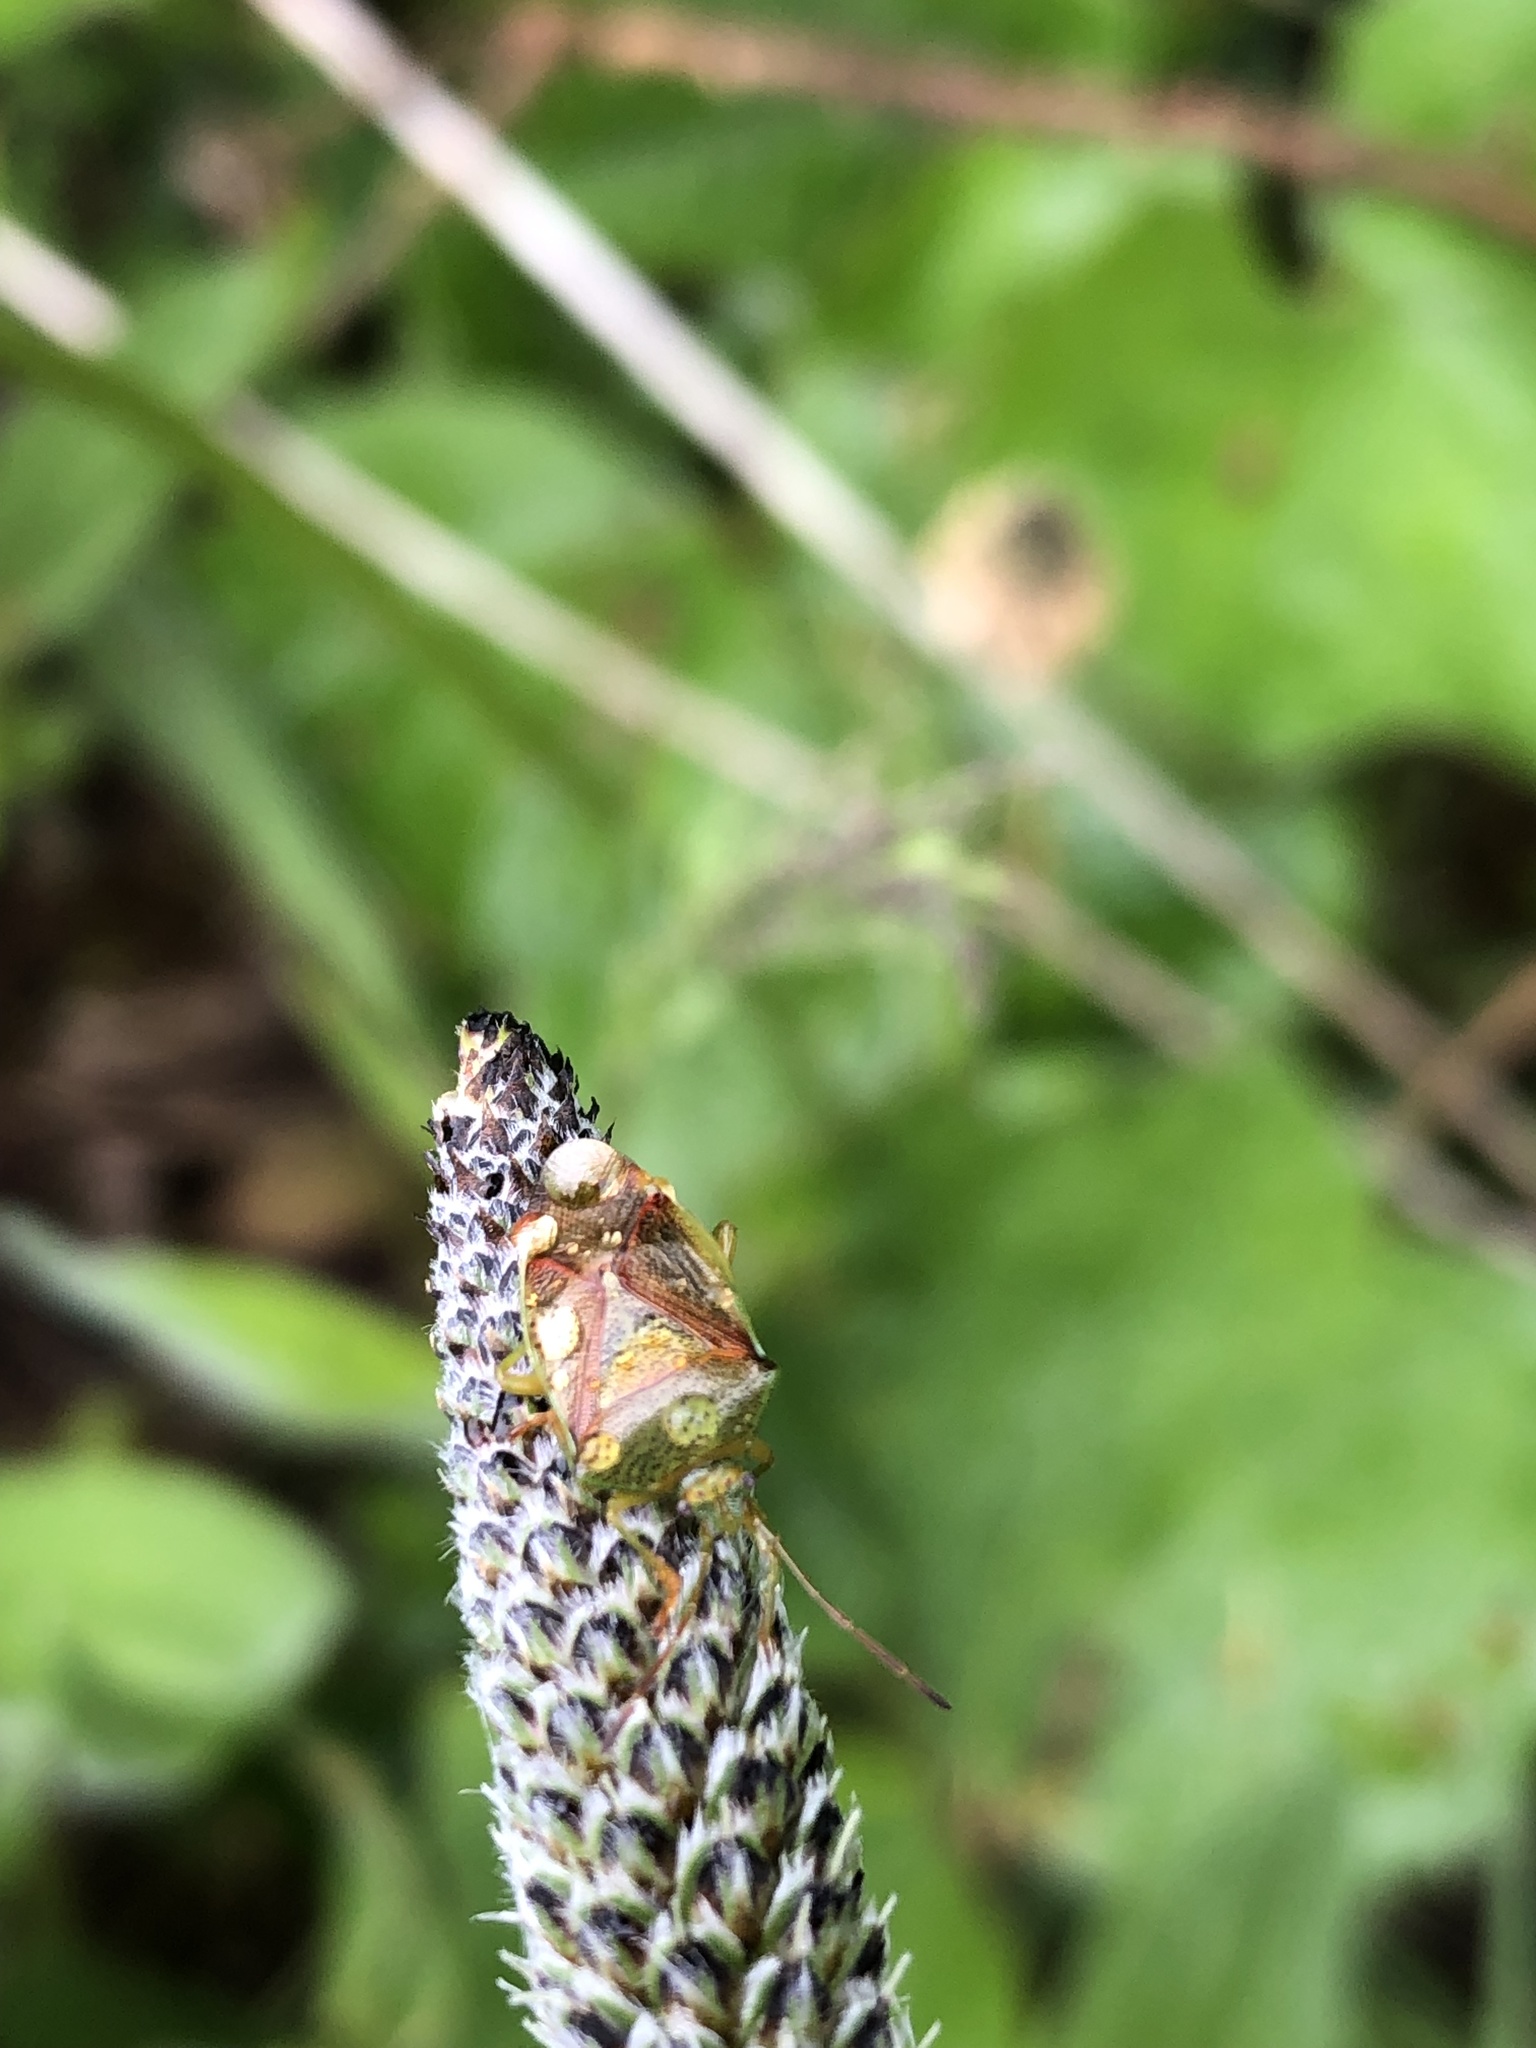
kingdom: Animalia
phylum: Arthropoda
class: Insecta
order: Hemiptera
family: Acanthosomatidae
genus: Elasmostethus
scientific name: Elasmostethus interstinctus
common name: Birch shieldbug
